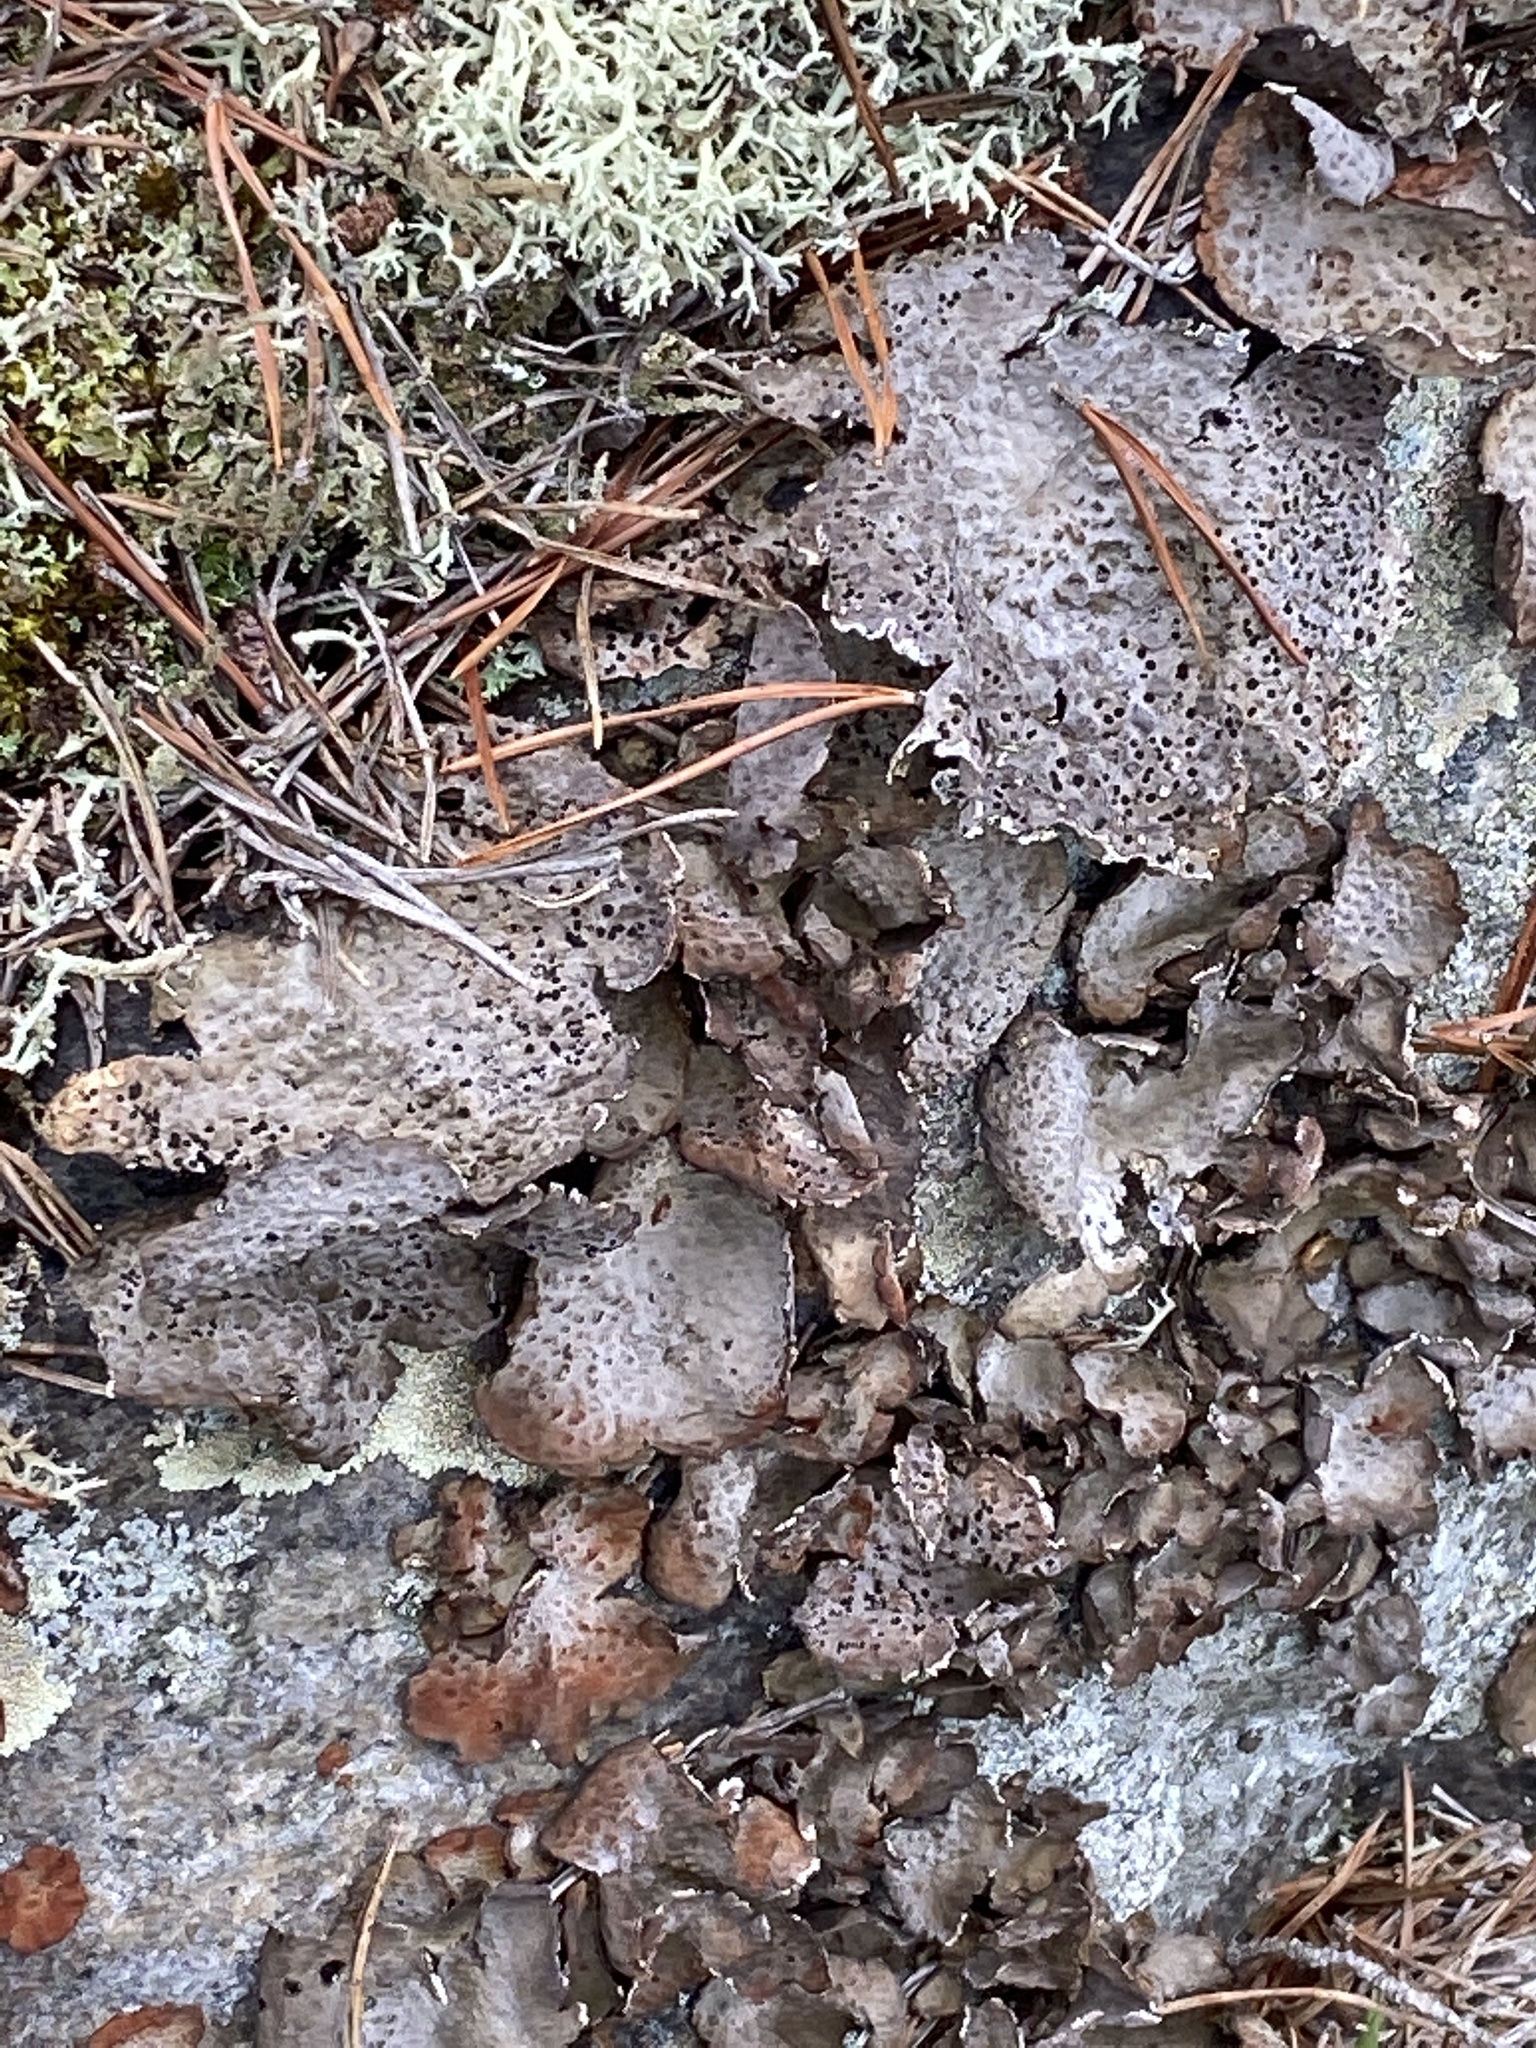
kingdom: Fungi
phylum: Ascomycota
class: Lecanoromycetes
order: Umbilicariales
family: Umbilicariaceae
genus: Lasallia
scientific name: Lasallia papulosa
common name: Common toadskin lichen
